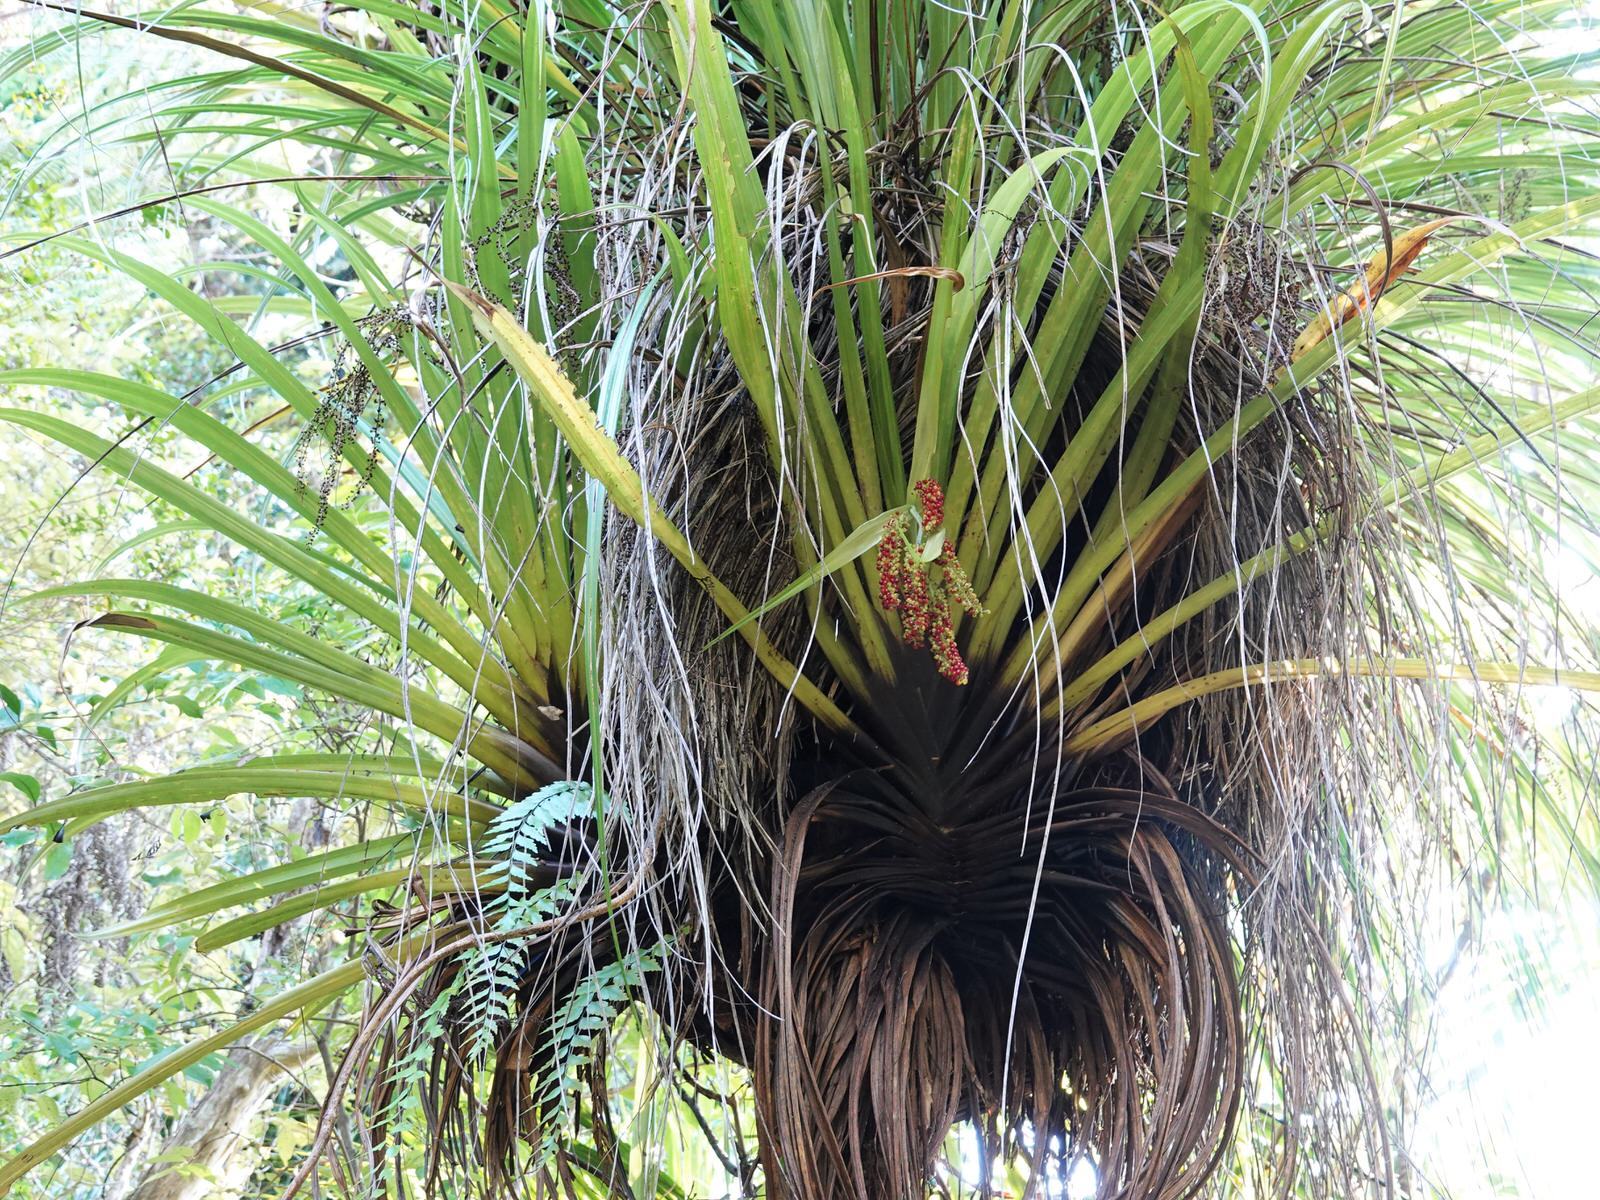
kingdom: Plantae
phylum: Tracheophyta
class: Liliopsida
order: Asparagales
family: Asteliaceae
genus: Astelia
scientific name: Astelia hastata
